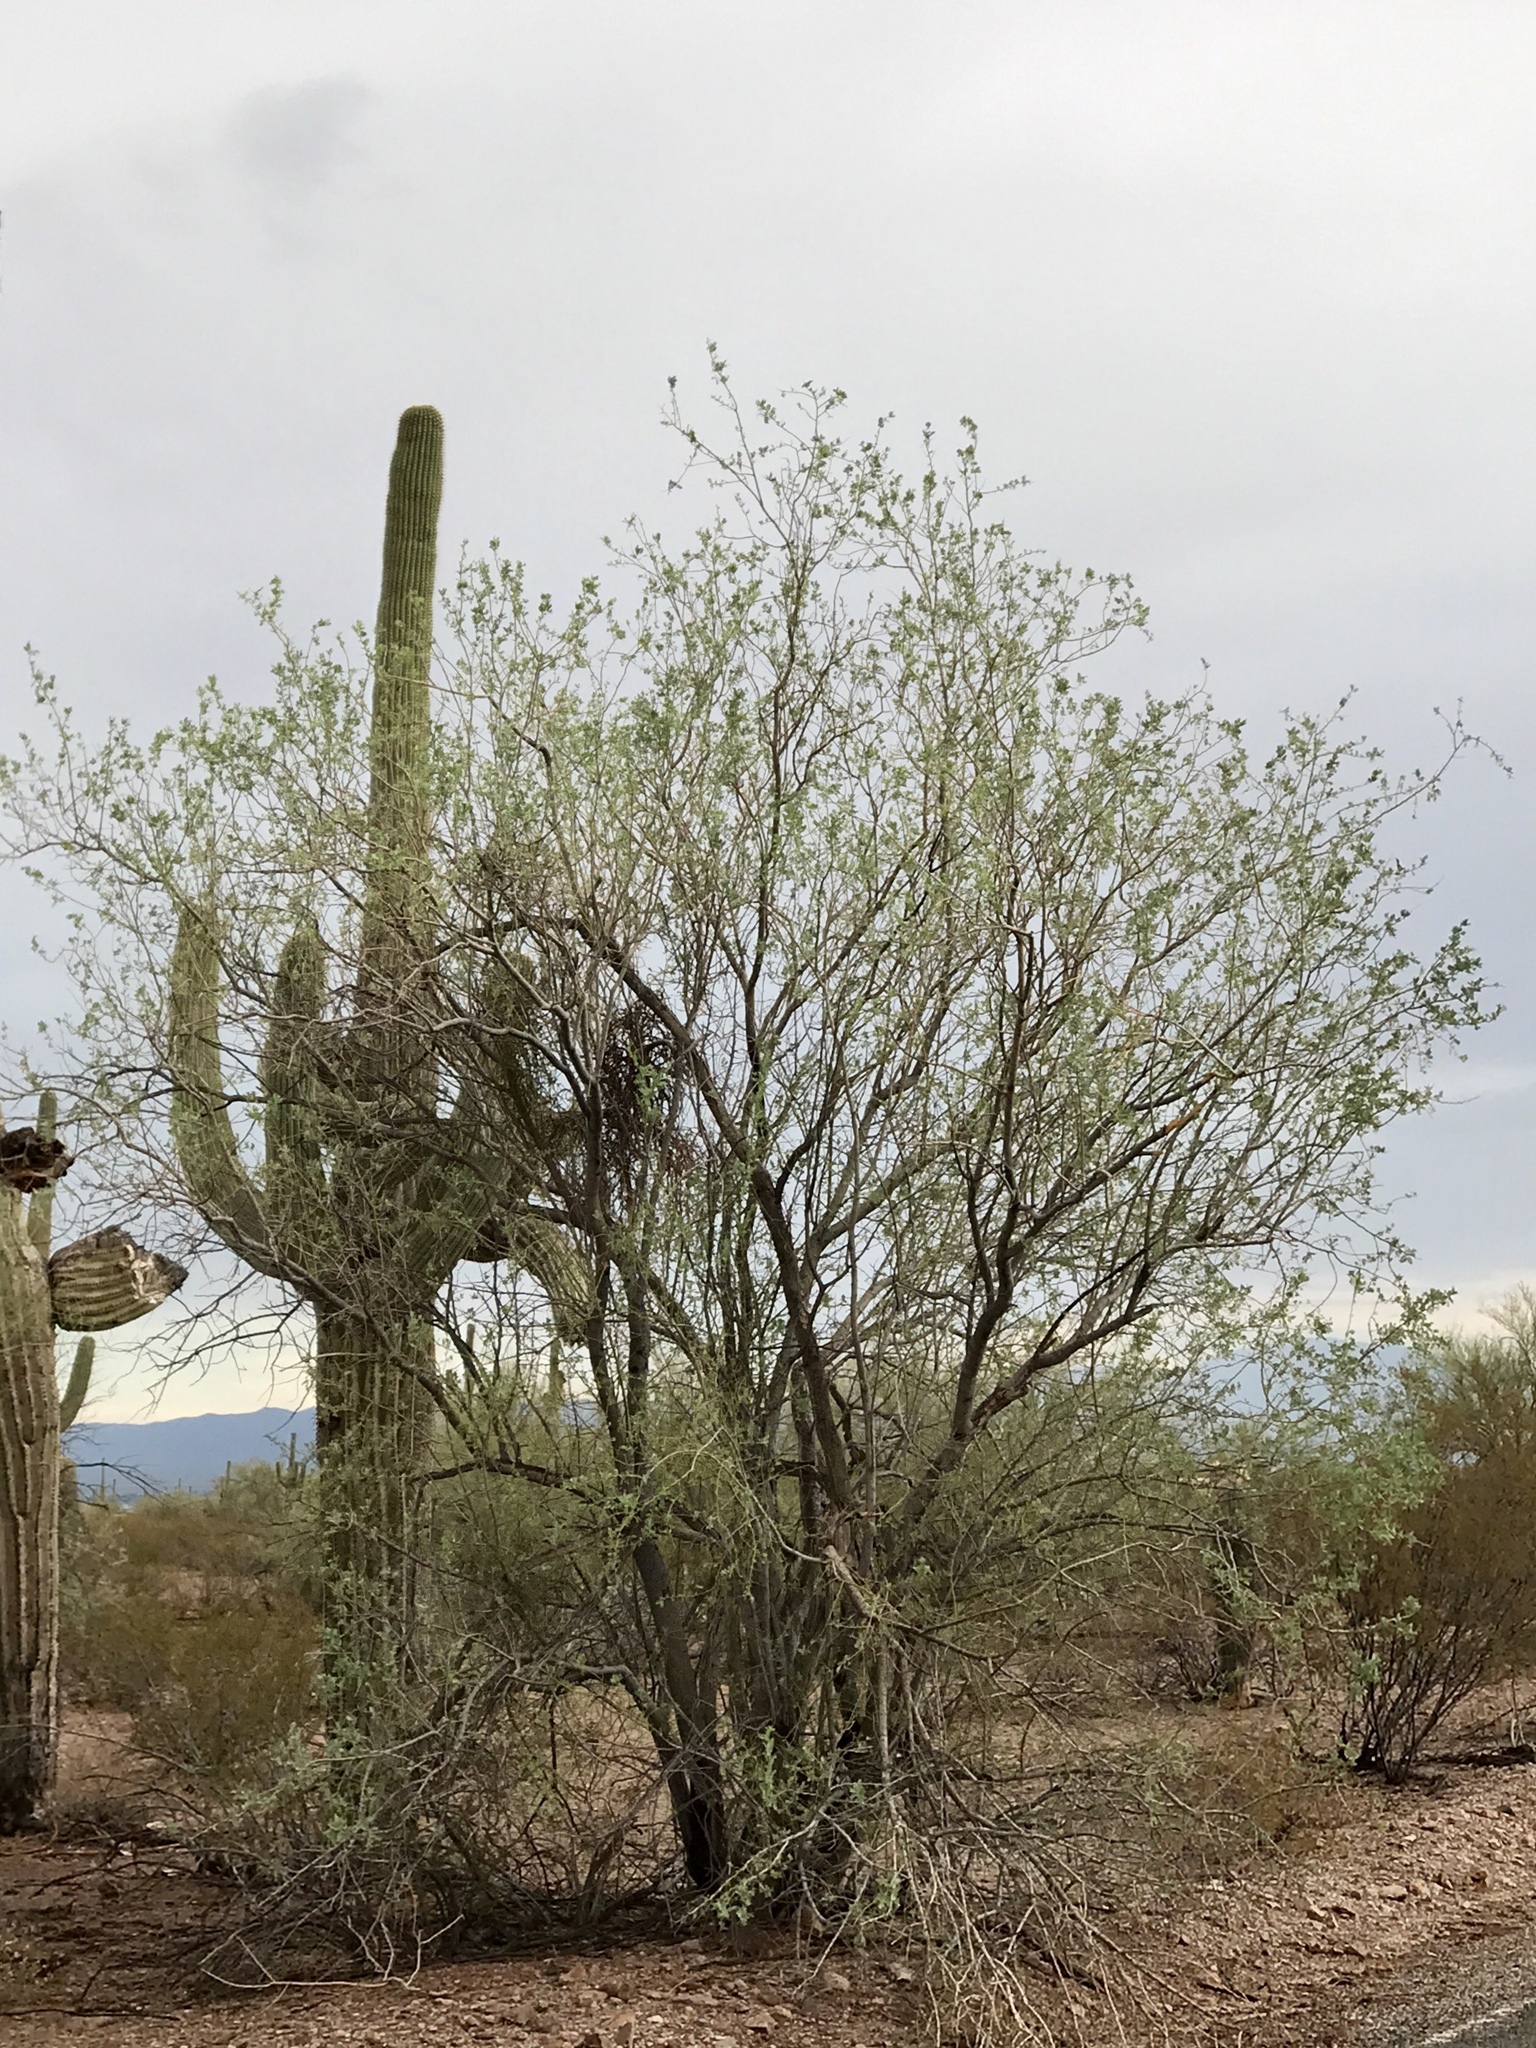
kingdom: Plantae
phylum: Tracheophyta
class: Magnoliopsida
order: Fabales
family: Fabaceae
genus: Olneya
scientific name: Olneya tesota
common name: Desert ironwood
